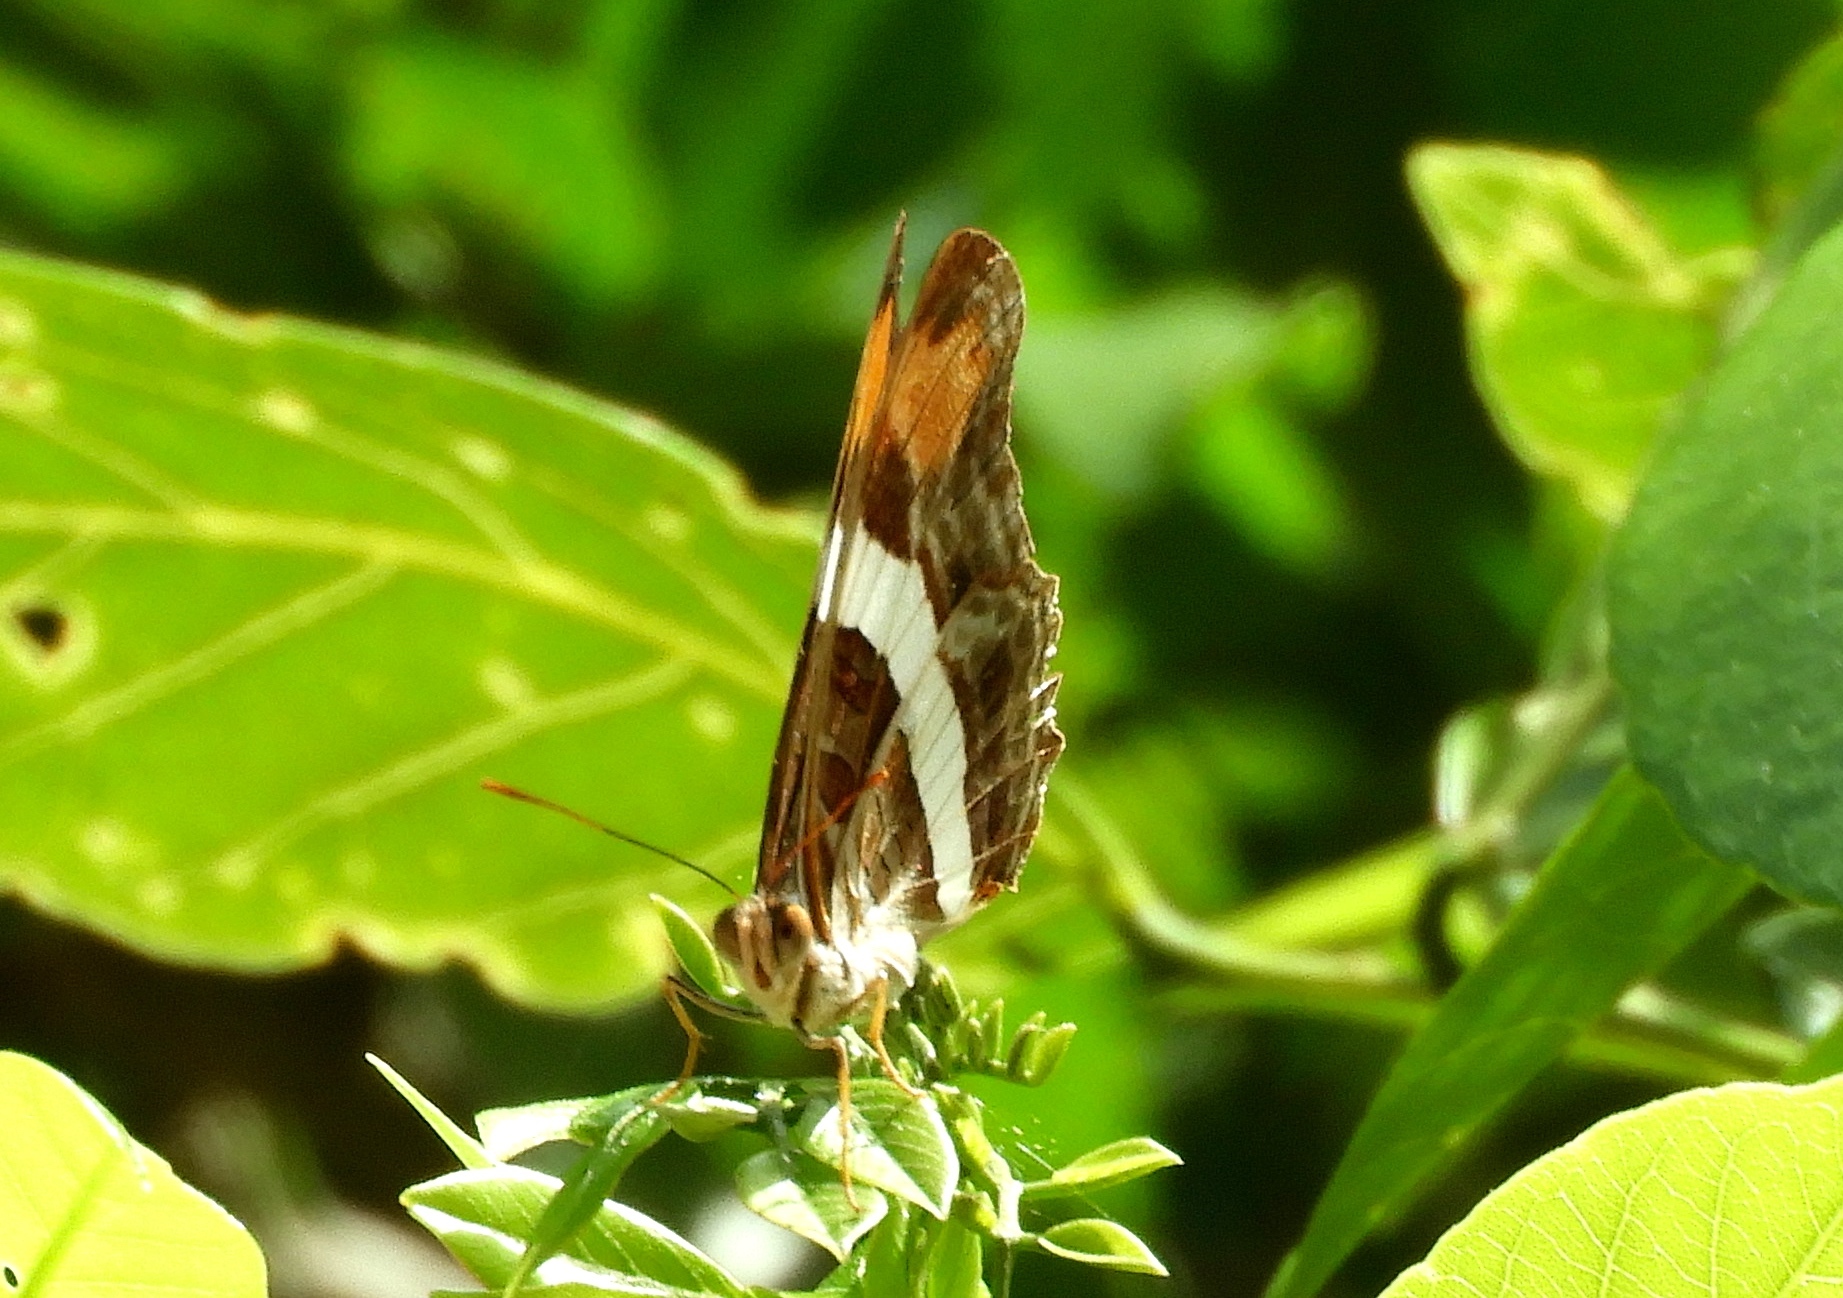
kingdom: Animalia
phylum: Arthropoda
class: Insecta
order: Lepidoptera
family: Nymphalidae
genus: Limenitis
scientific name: Limenitis fessonia
